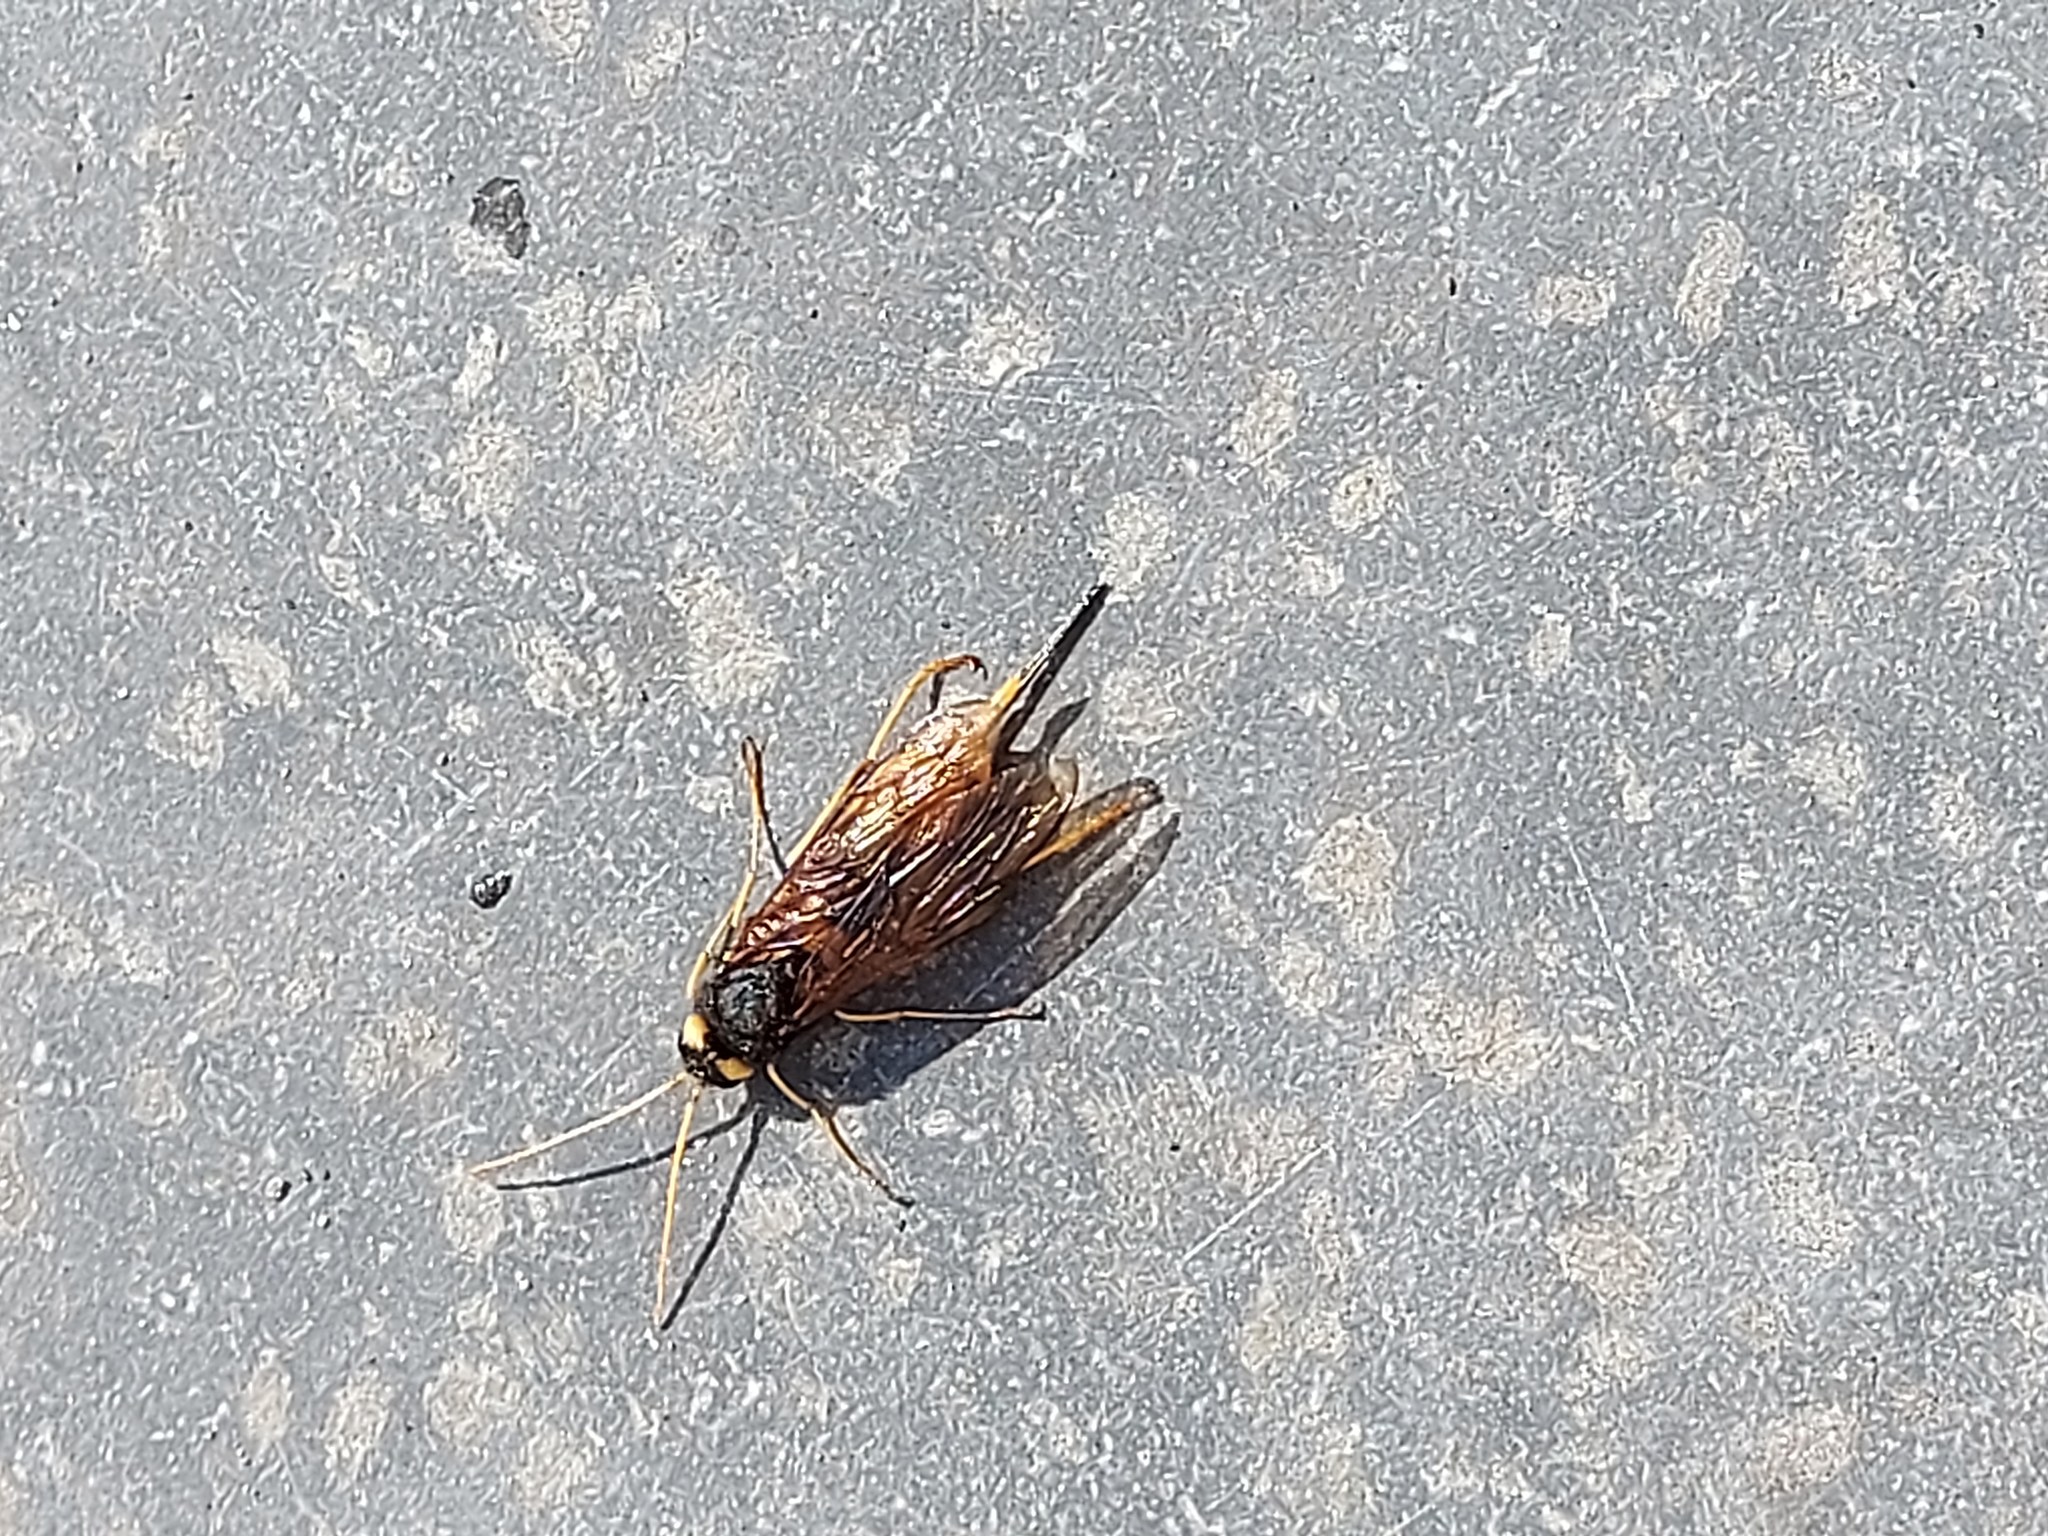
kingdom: Animalia
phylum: Arthropoda
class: Insecta
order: Hymenoptera
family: Siricidae
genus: Urocerus
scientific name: Urocerus gigas
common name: Giant woodwasp
